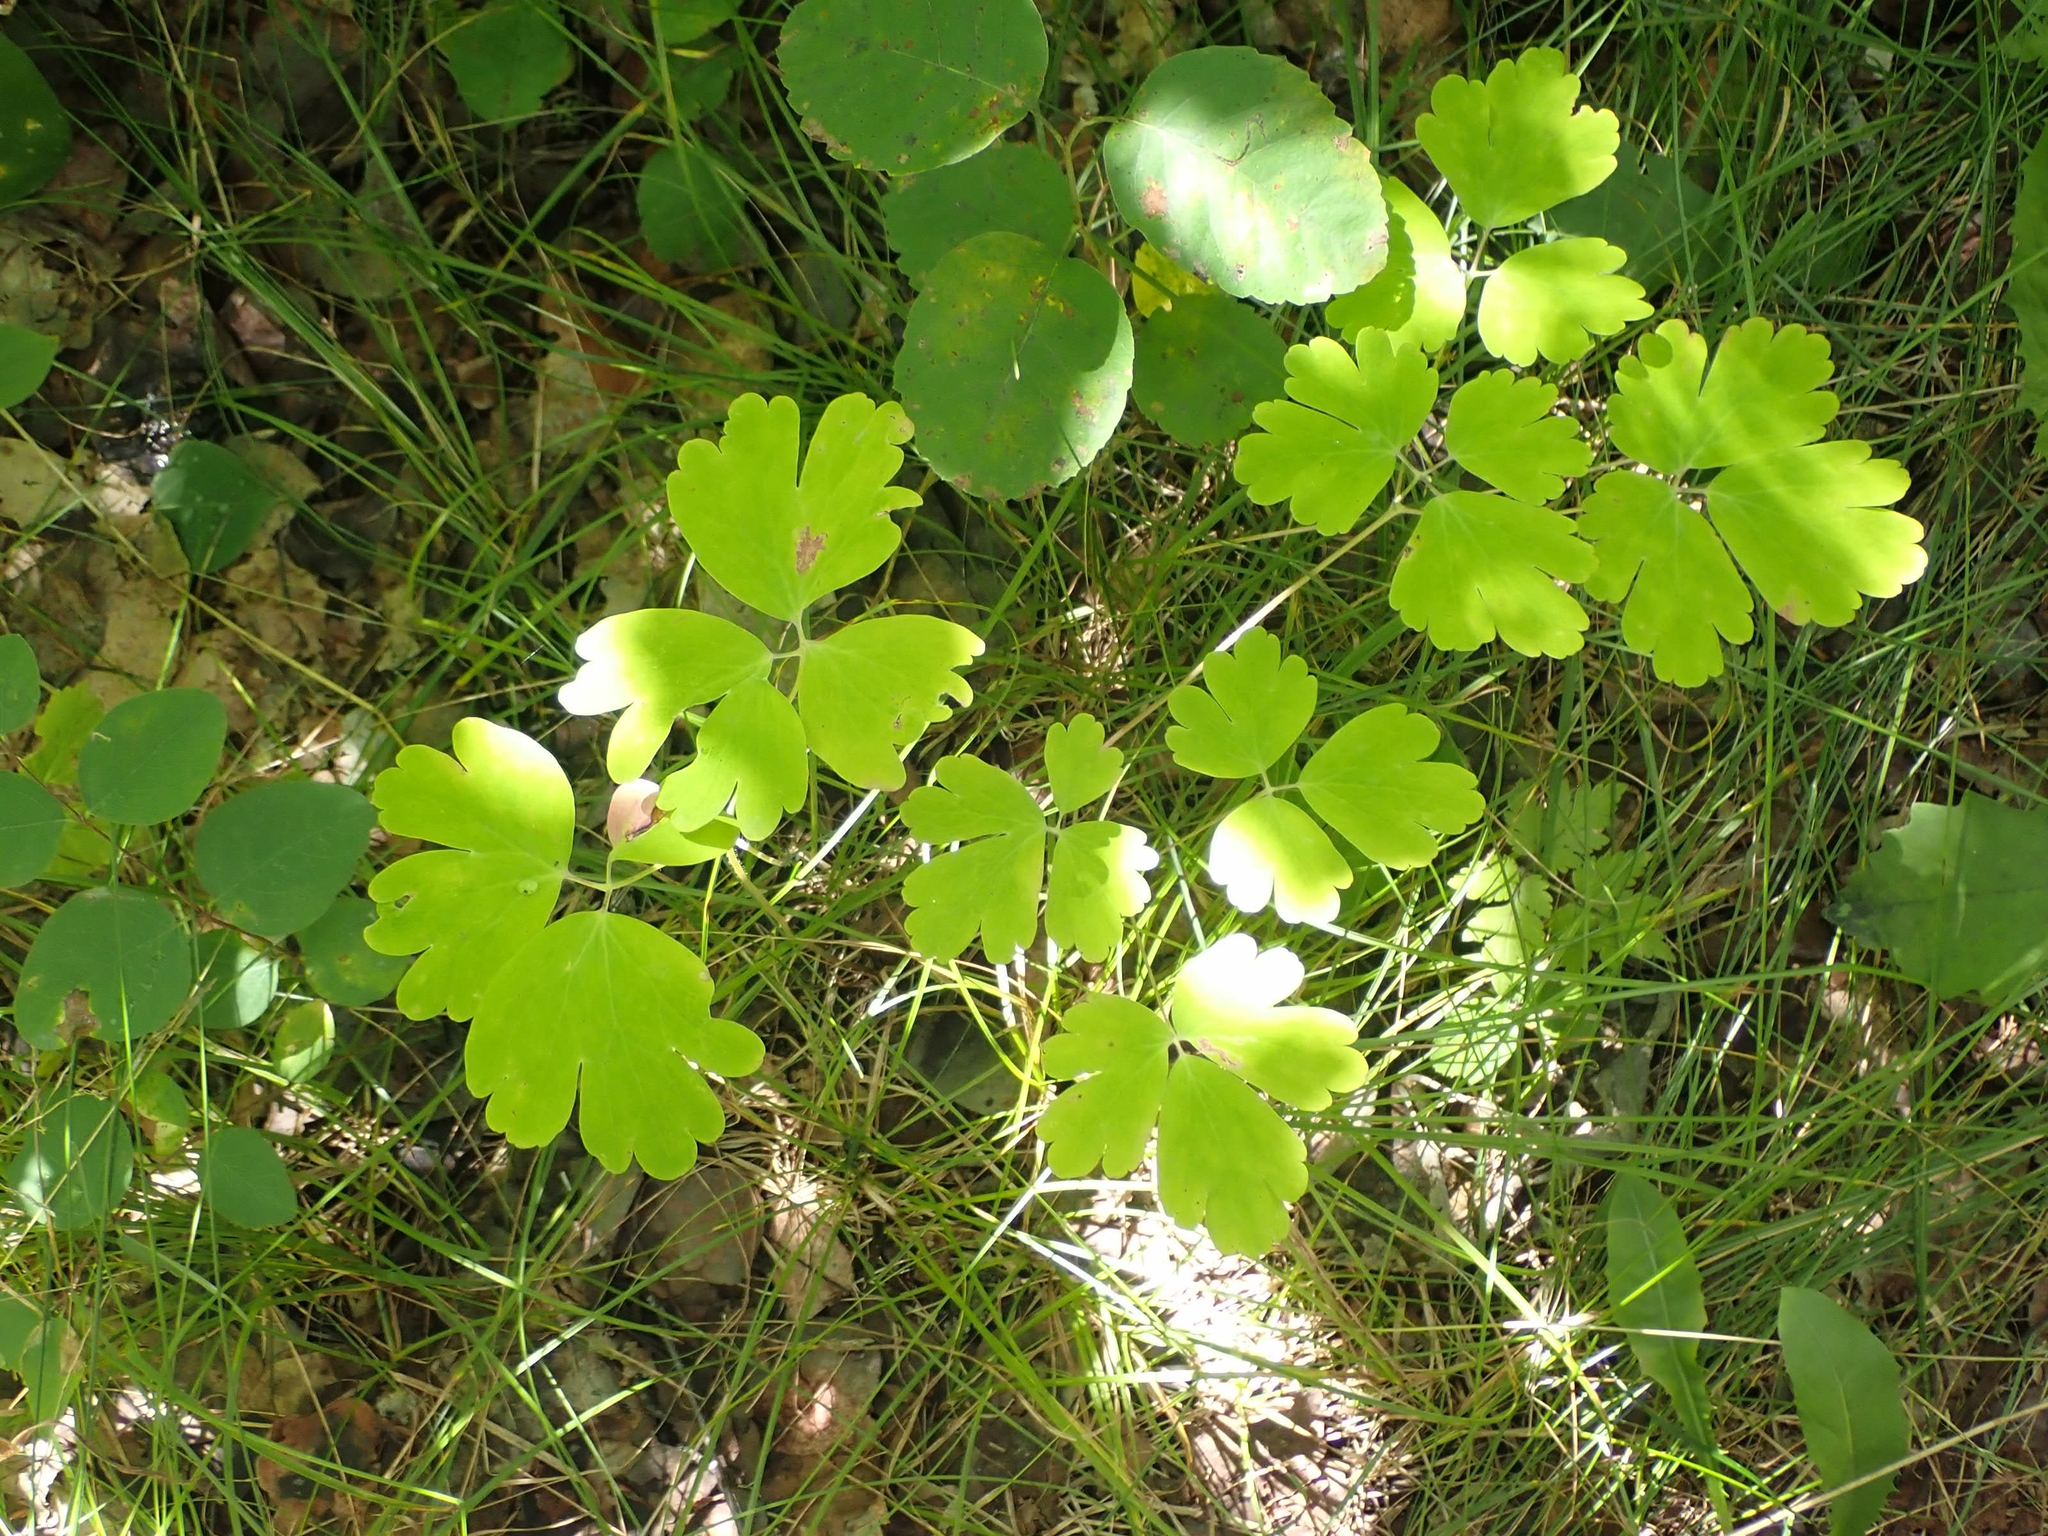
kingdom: Plantae
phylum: Tracheophyta
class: Magnoliopsida
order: Ranunculales
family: Ranunculaceae
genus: Aquilegia
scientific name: Aquilegia canadensis
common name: American columbine
